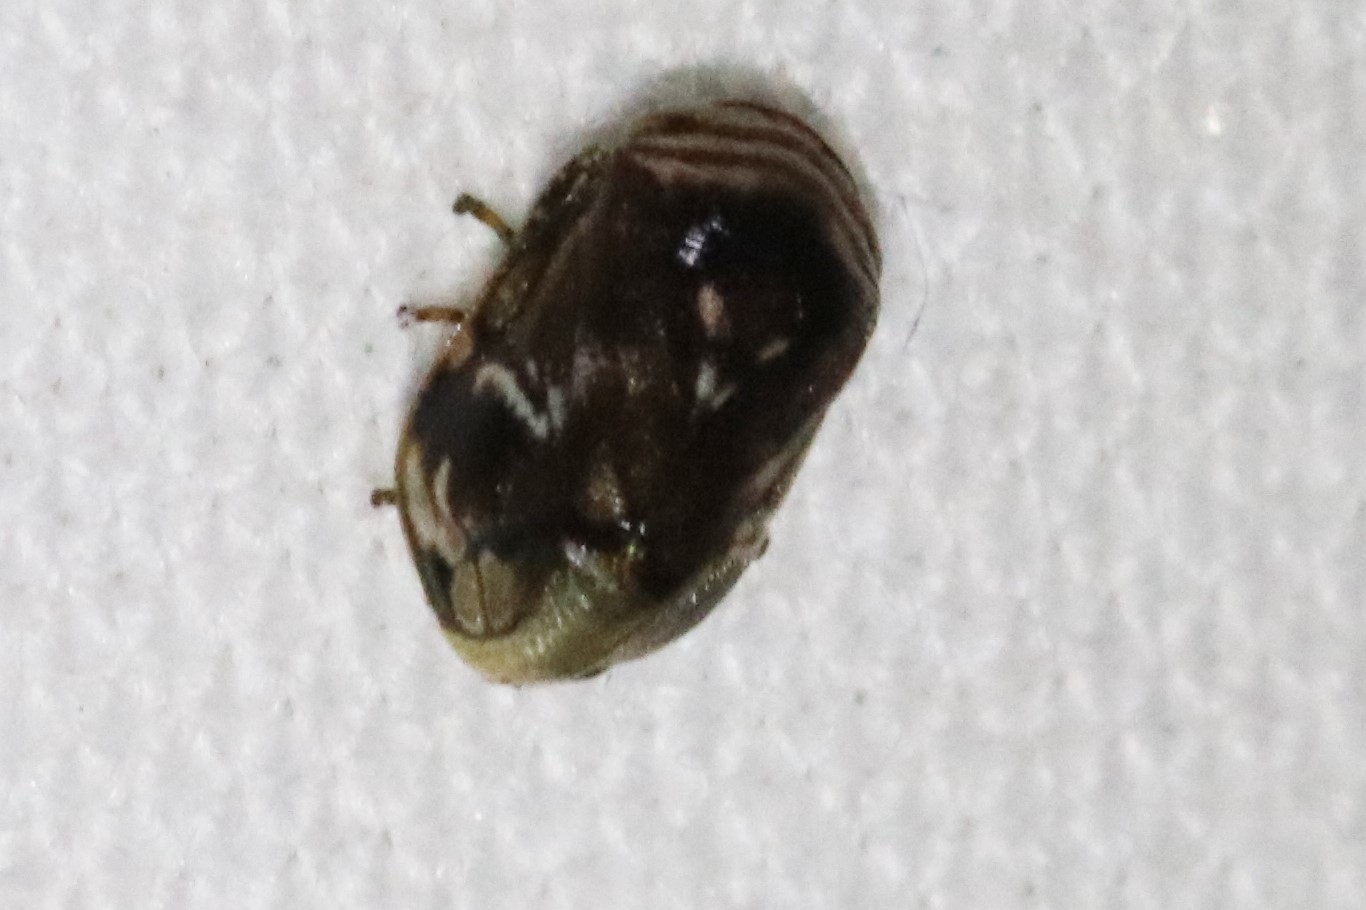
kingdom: Animalia
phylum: Arthropoda
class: Insecta
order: Hemiptera
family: Clastopteridae
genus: Clastoptera
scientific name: Clastoptera obtusa
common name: Alder spittlebug
